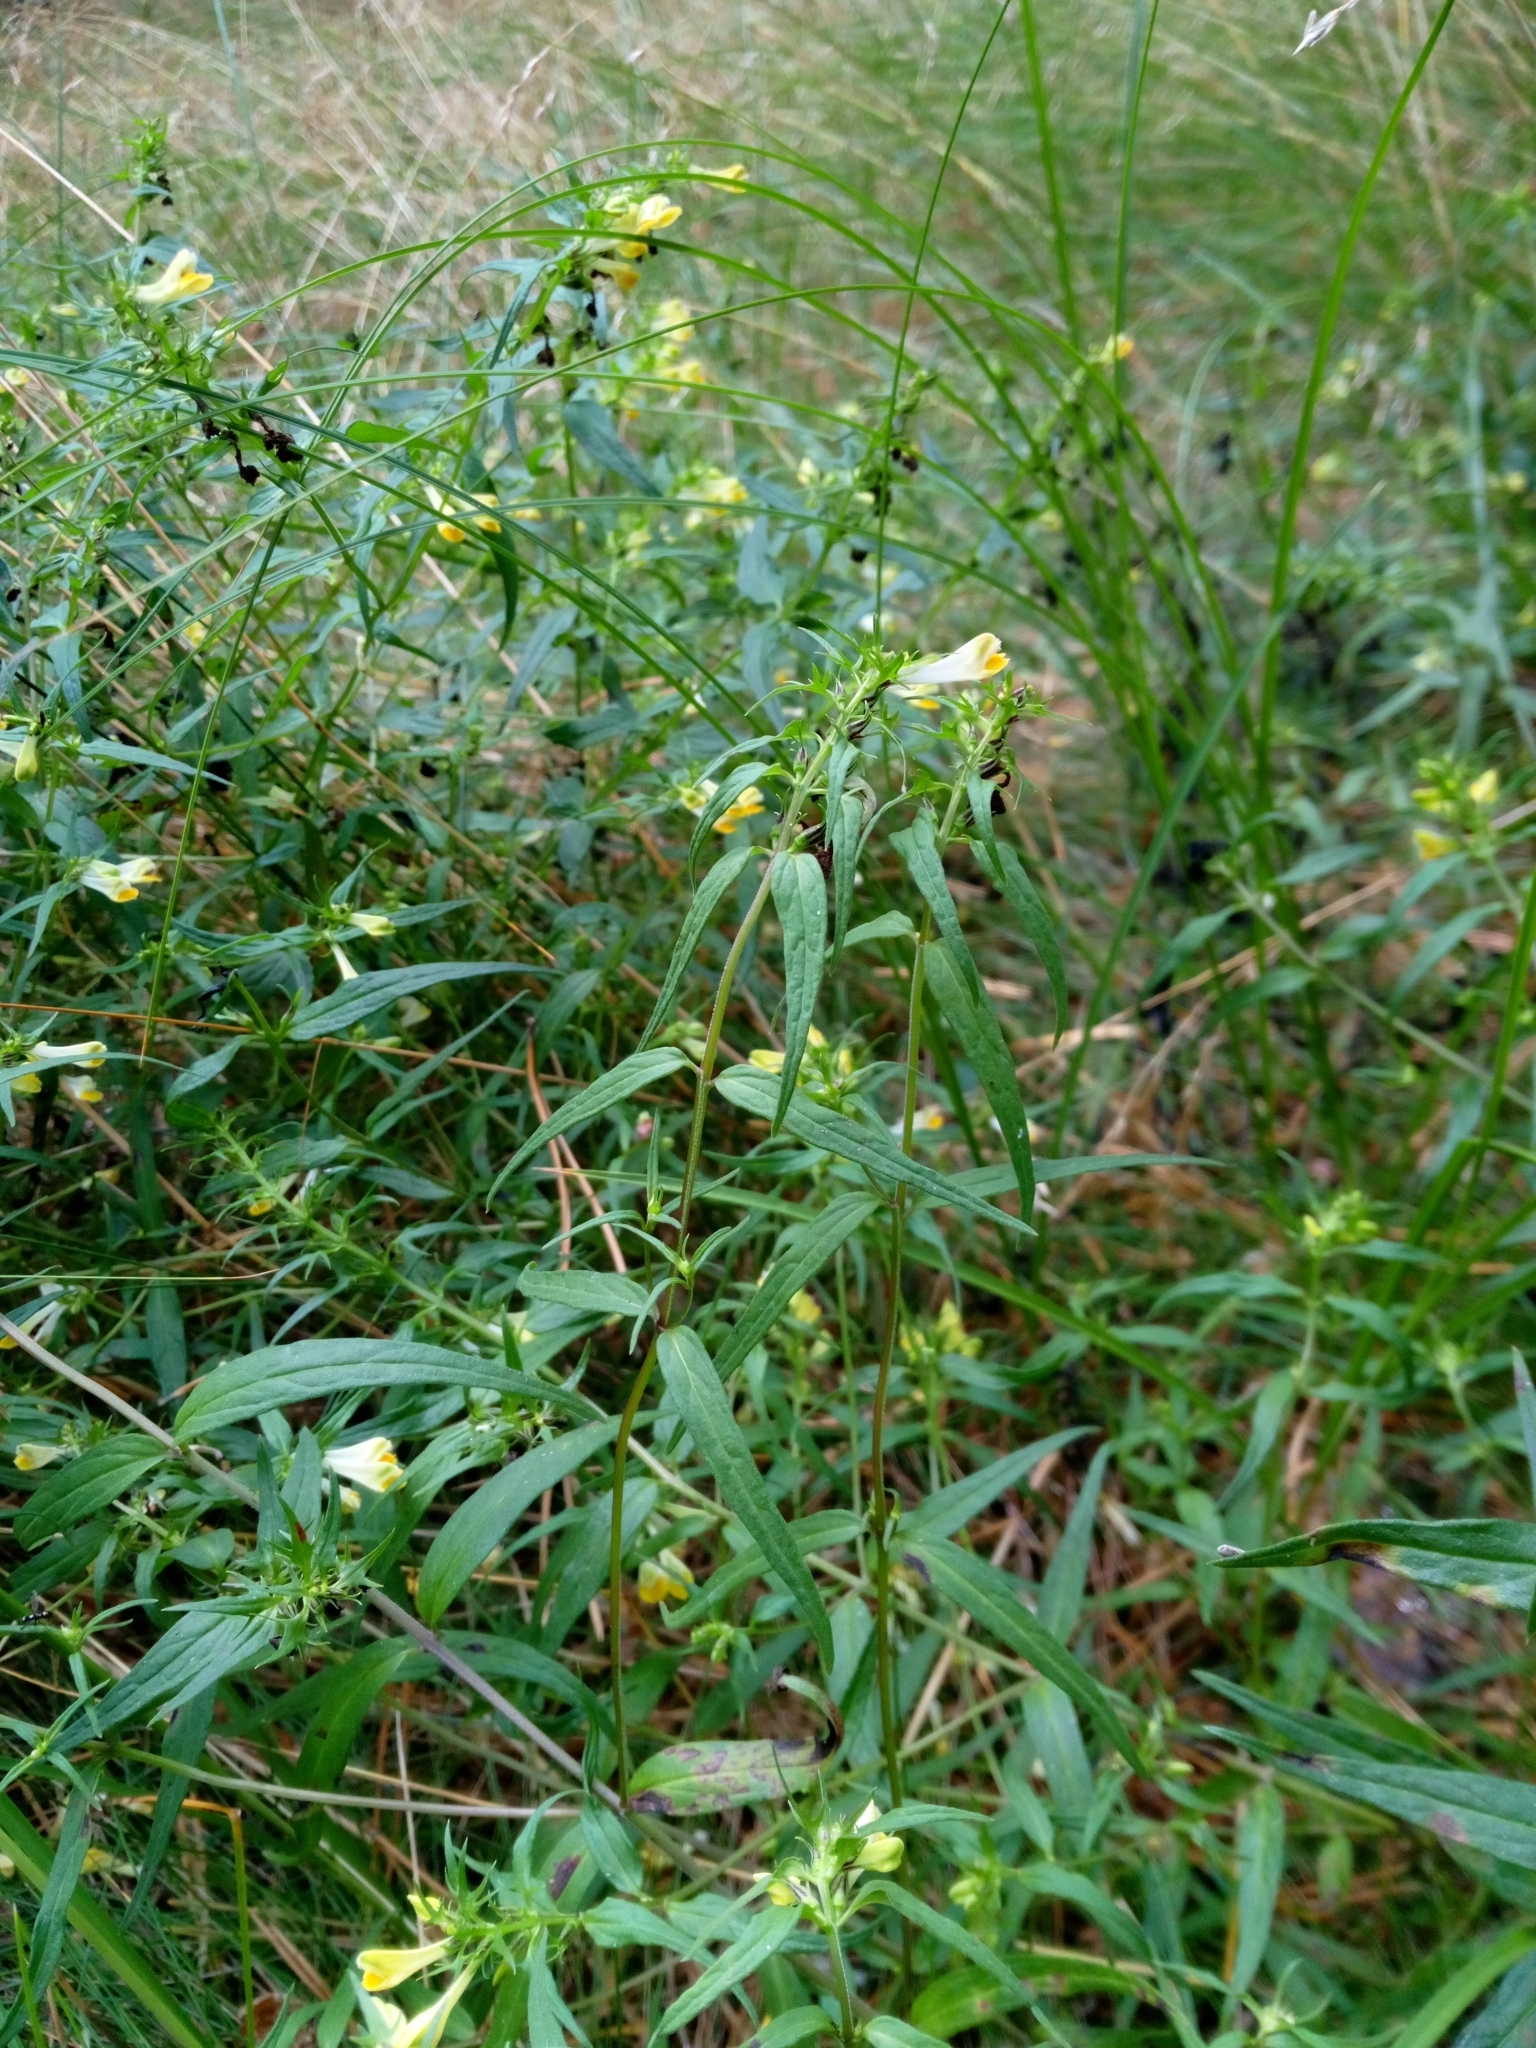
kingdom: Plantae
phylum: Tracheophyta
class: Magnoliopsida
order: Lamiales
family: Orobanchaceae
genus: Melampyrum
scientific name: Melampyrum pratense
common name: Common cow-wheat
